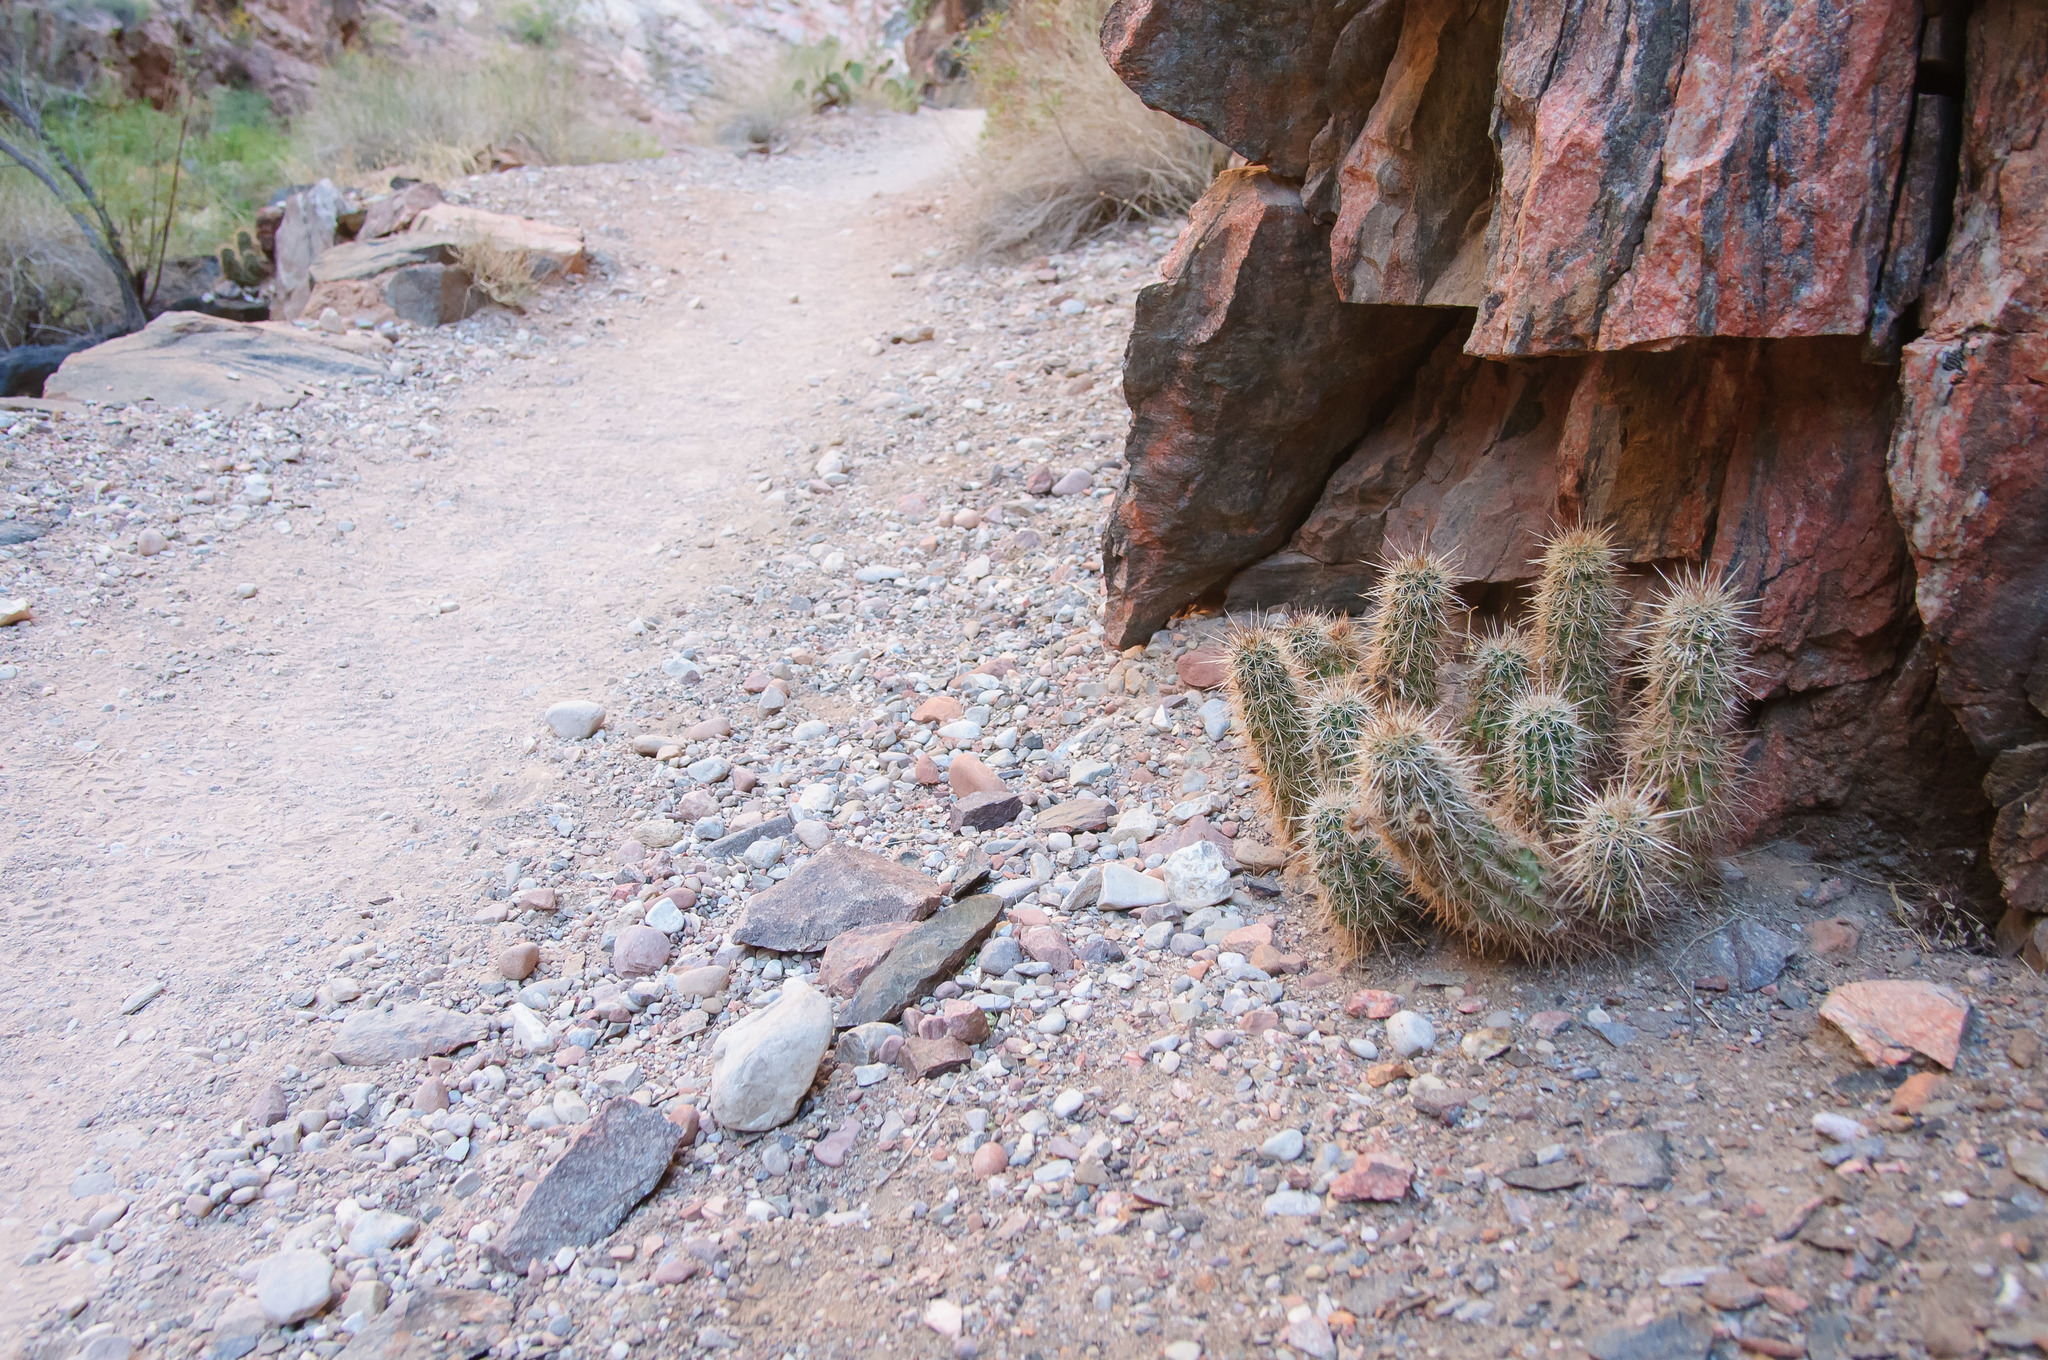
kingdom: Plantae
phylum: Tracheophyta
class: Magnoliopsida
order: Caryophyllales
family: Cactaceae
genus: Echinocereus
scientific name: Echinocereus engelmannii
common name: Engelmann's hedgehog cactus
